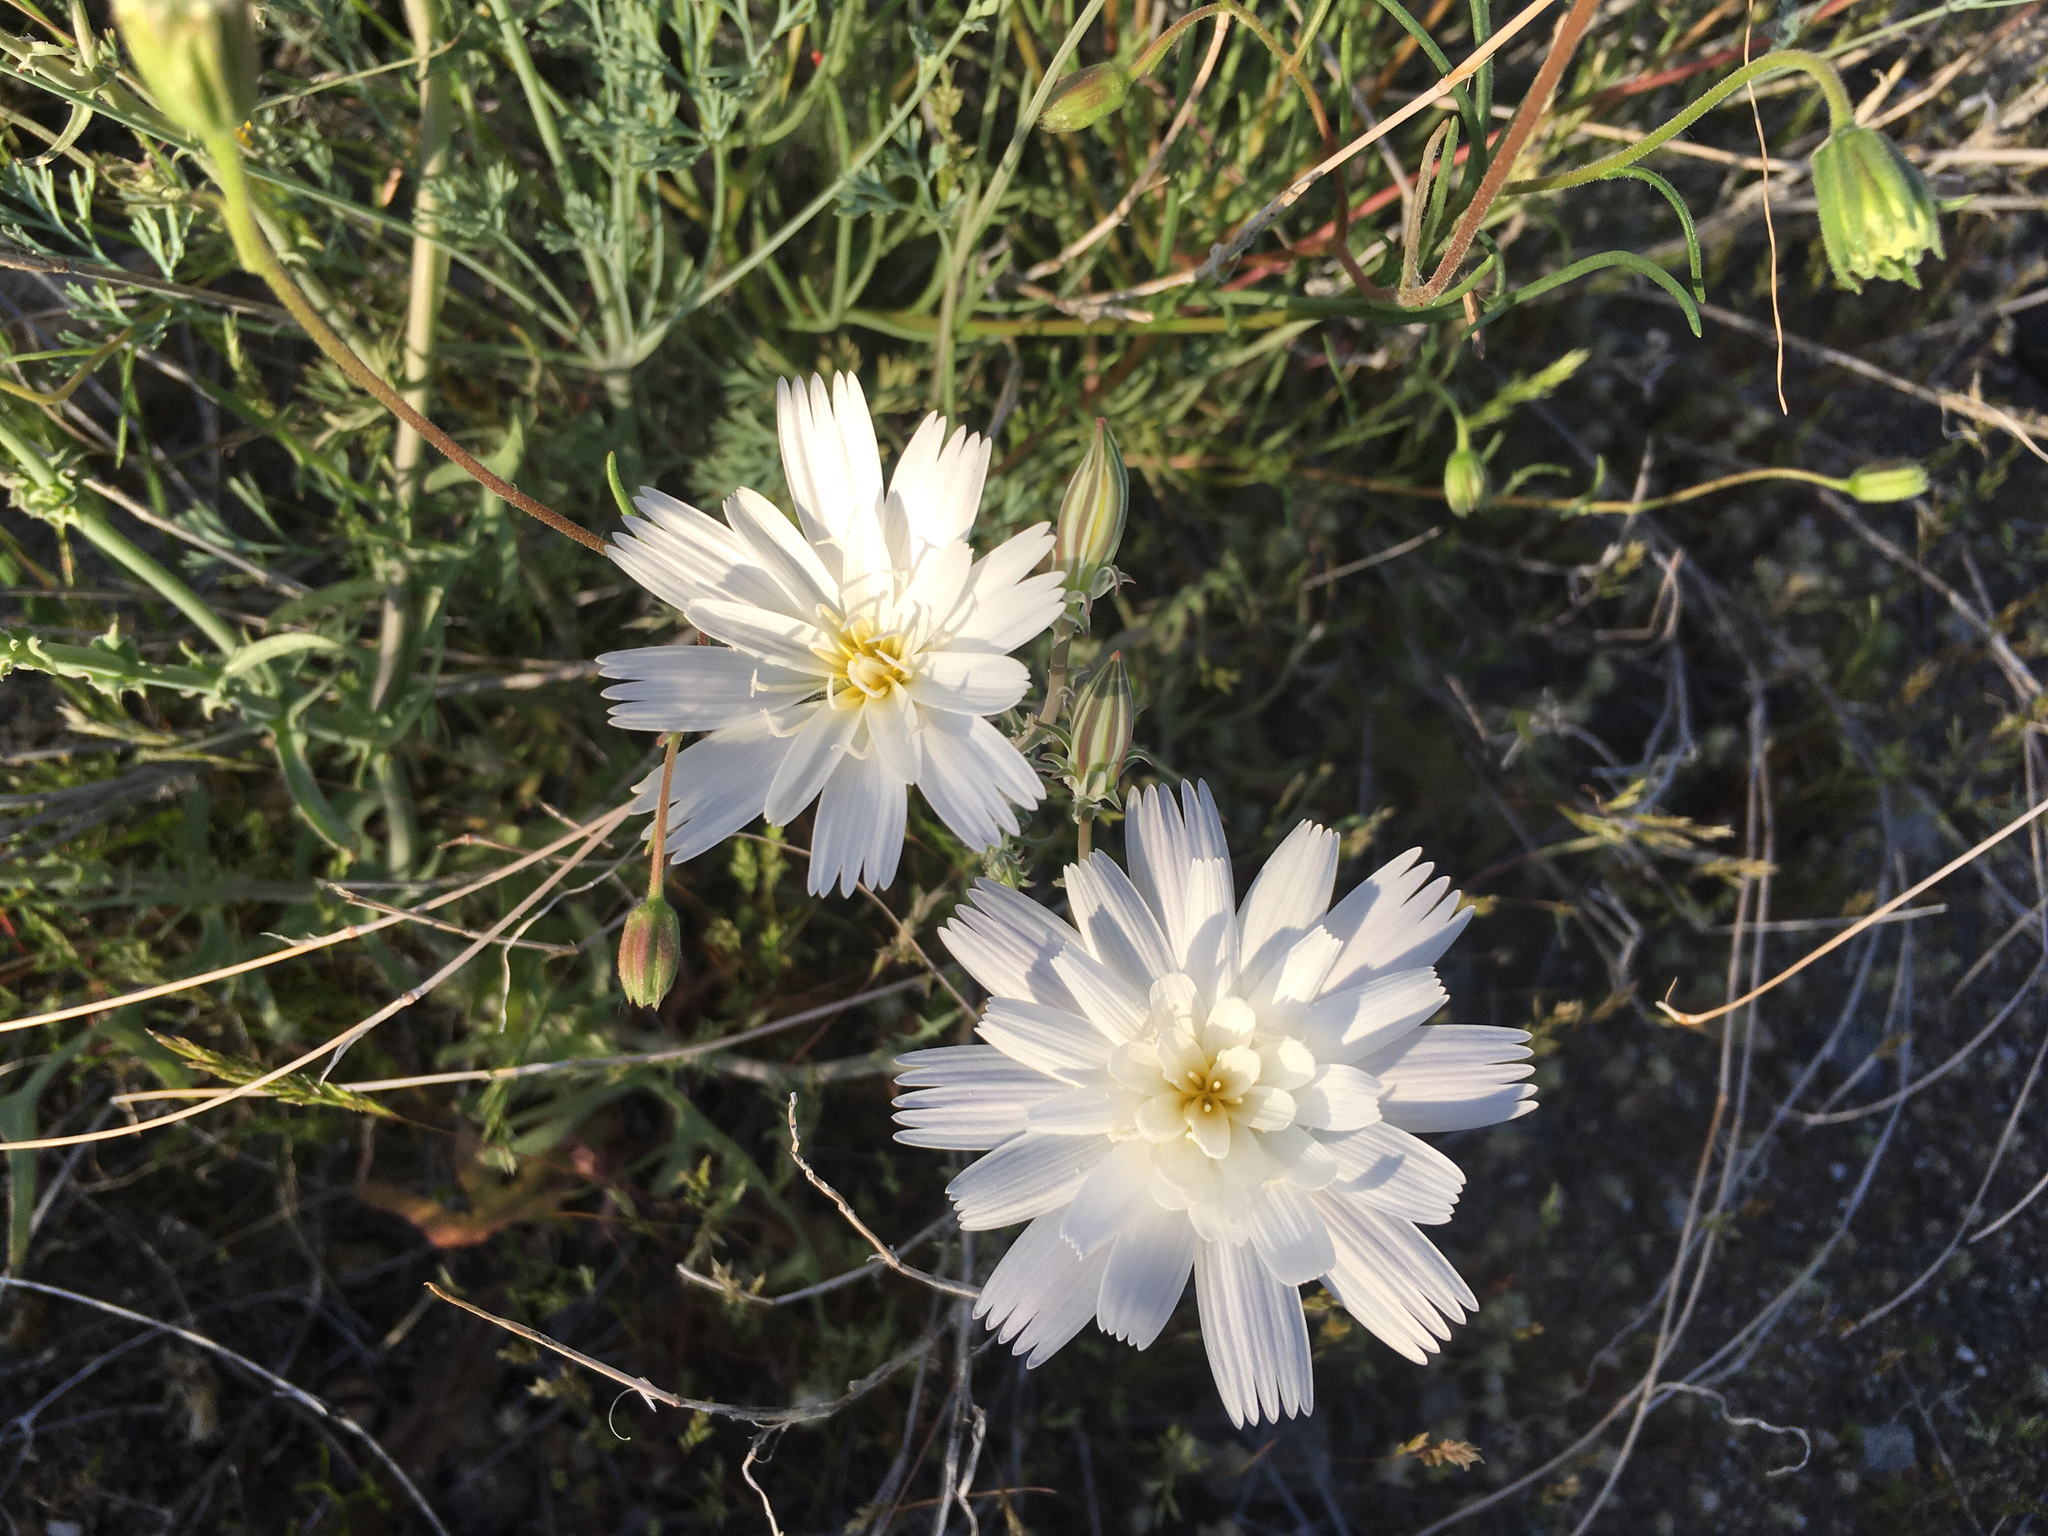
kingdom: Plantae
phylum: Tracheophyta
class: Magnoliopsida
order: Asterales
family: Asteraceae
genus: Rafinesquia
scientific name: Rafinesquia neomexicana
